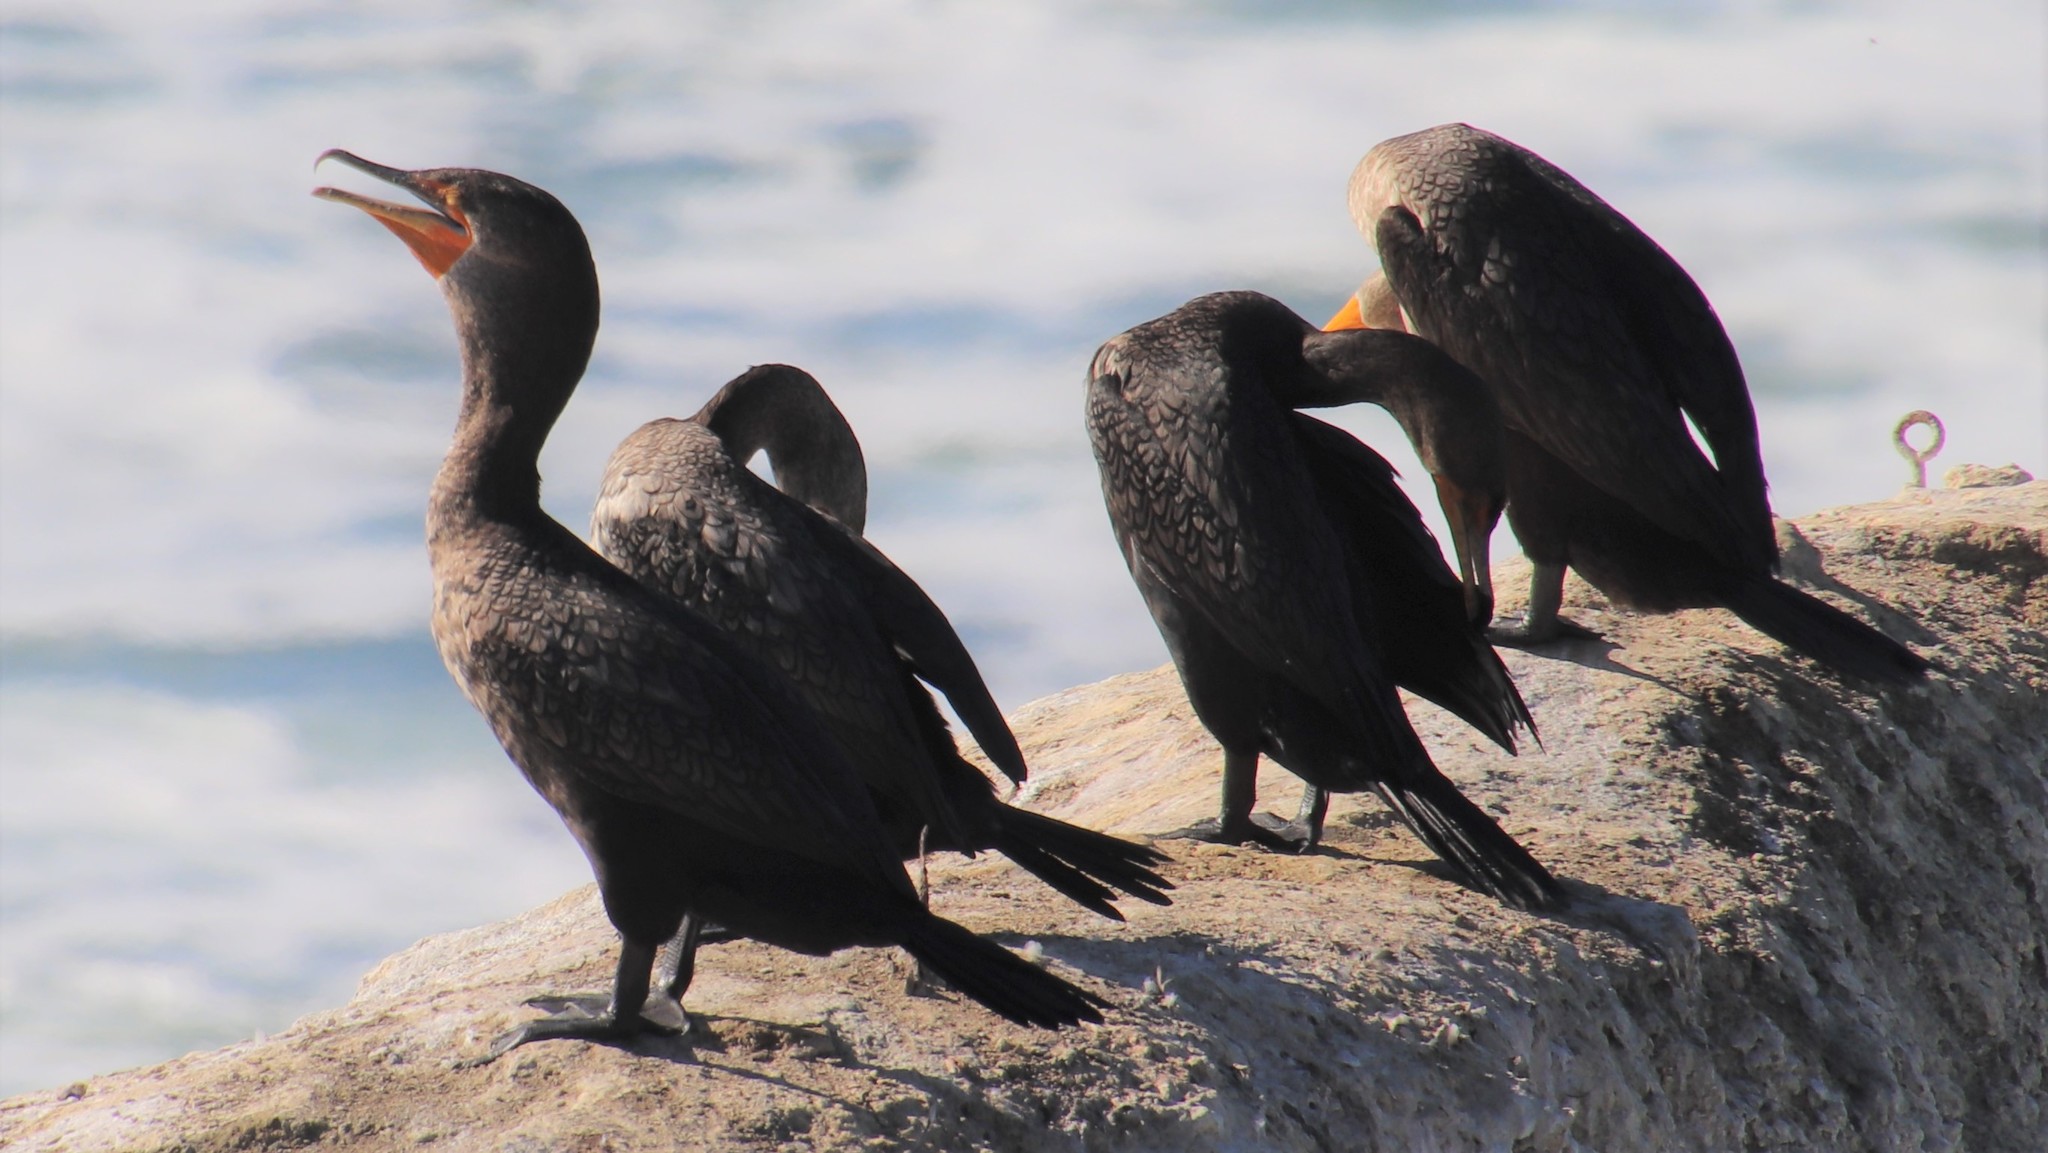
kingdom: Animalia
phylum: Chordata
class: Aves
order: Suliformes
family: Phalacrocoracidae
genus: Phalacrocorax
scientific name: Phalacrocorax auritus
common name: Double-crested cormorant
